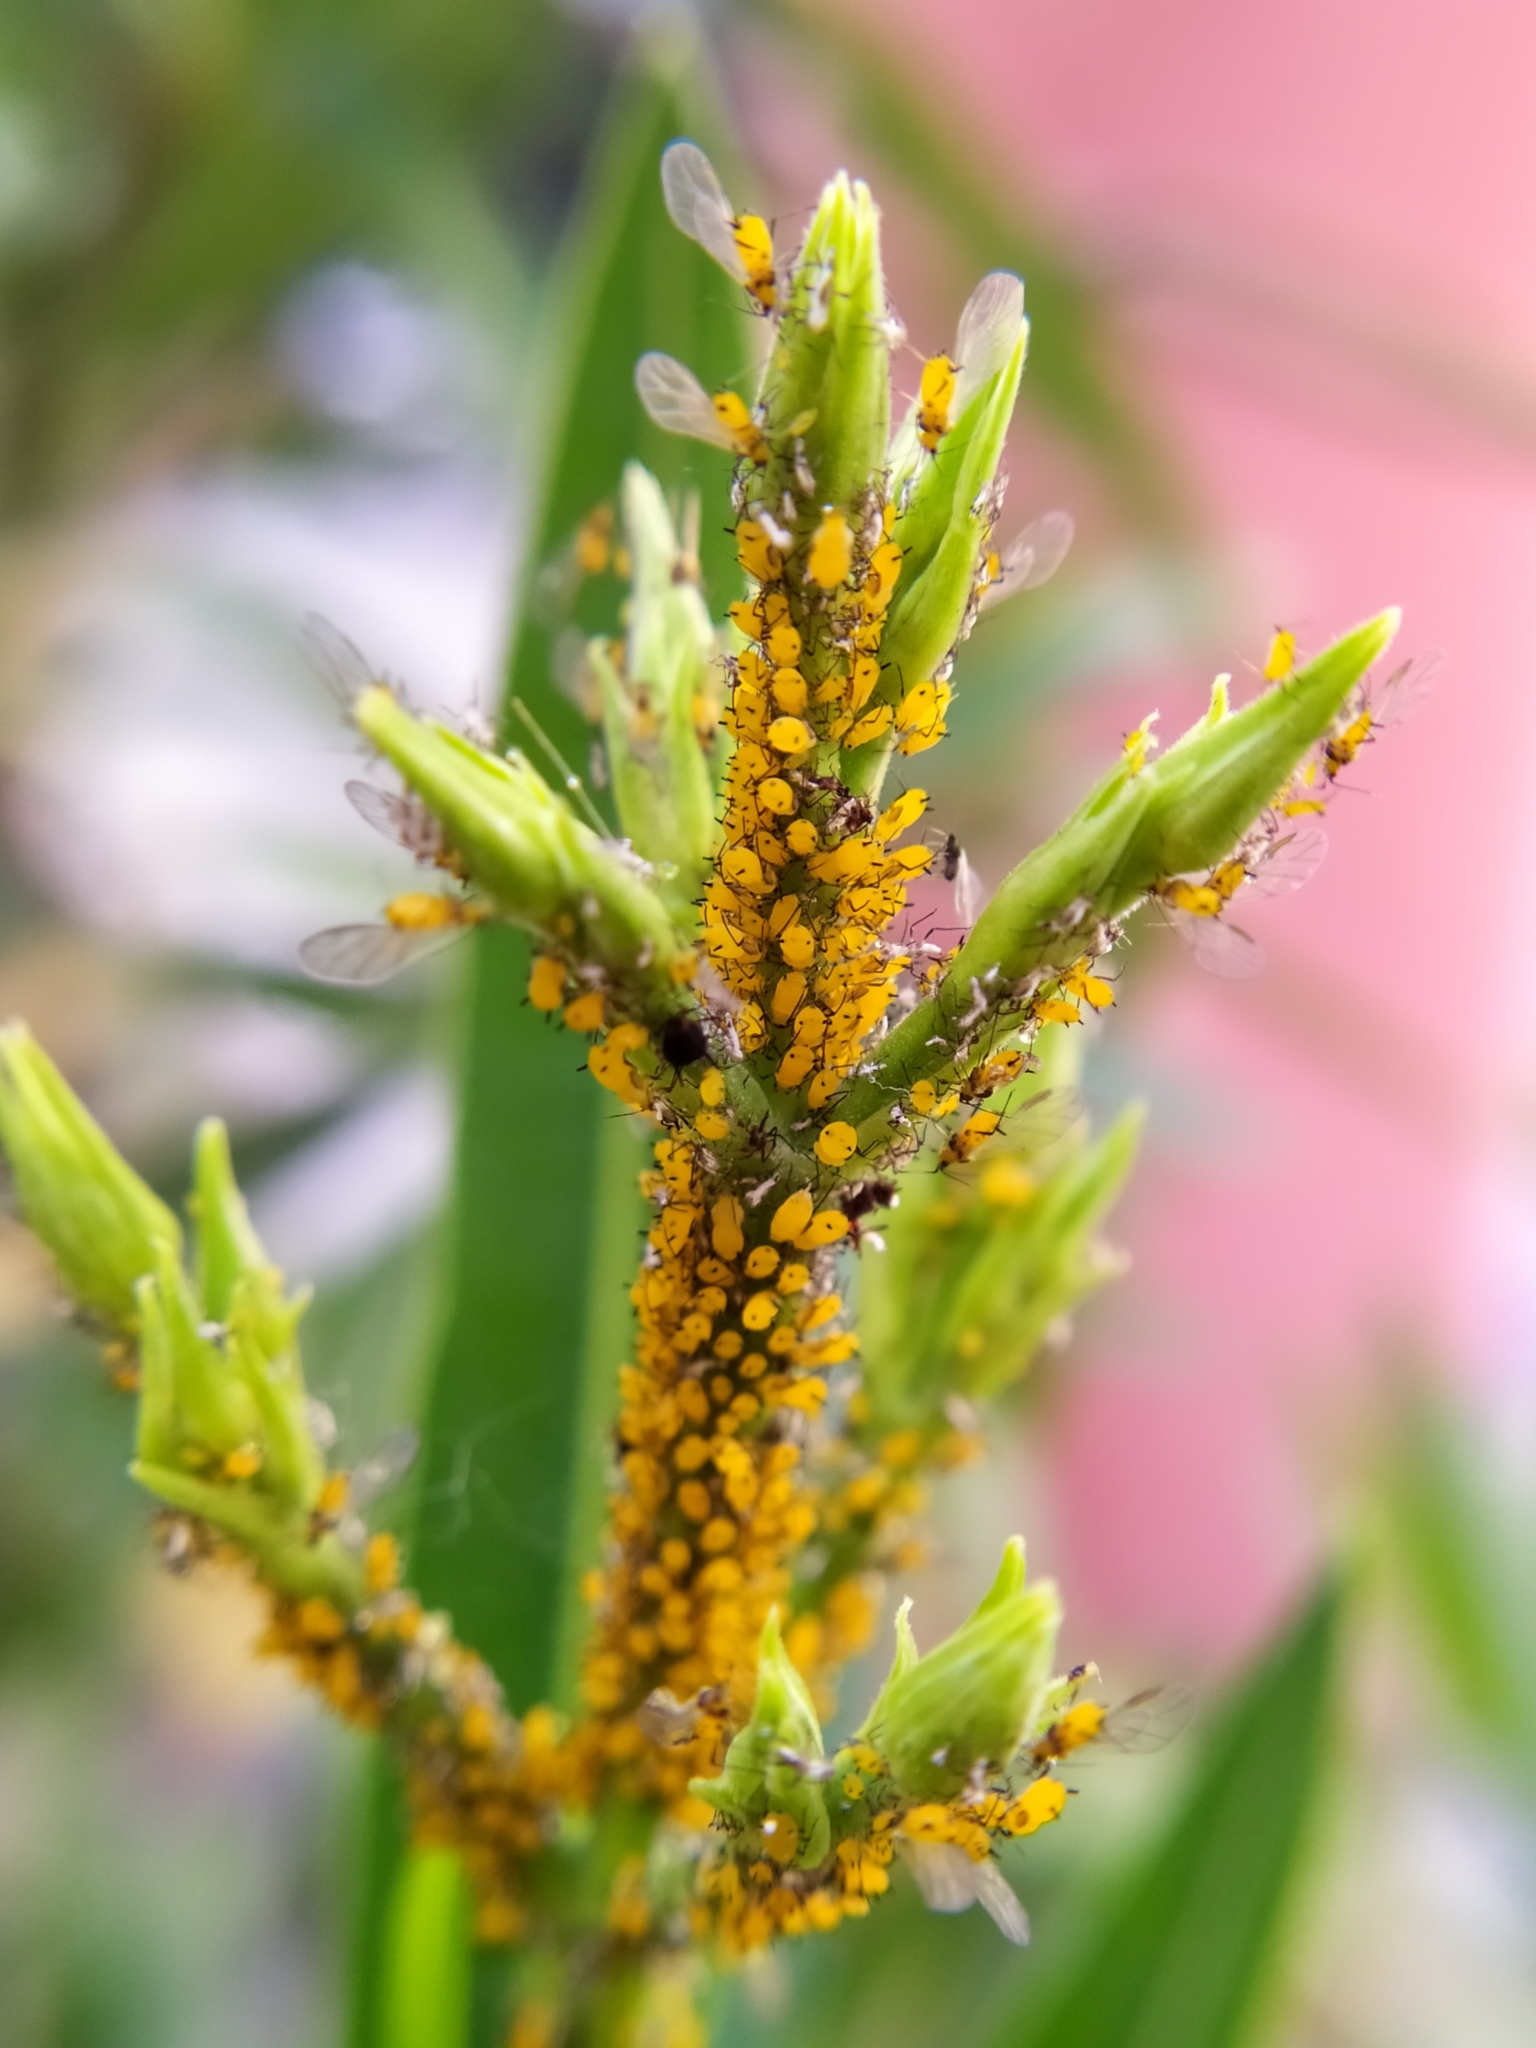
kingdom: Animalia
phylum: Arthropoda
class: Insecta
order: Hemiptera
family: Aphididae
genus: Aphis
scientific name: Aphis nerii
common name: Oleander aphid
